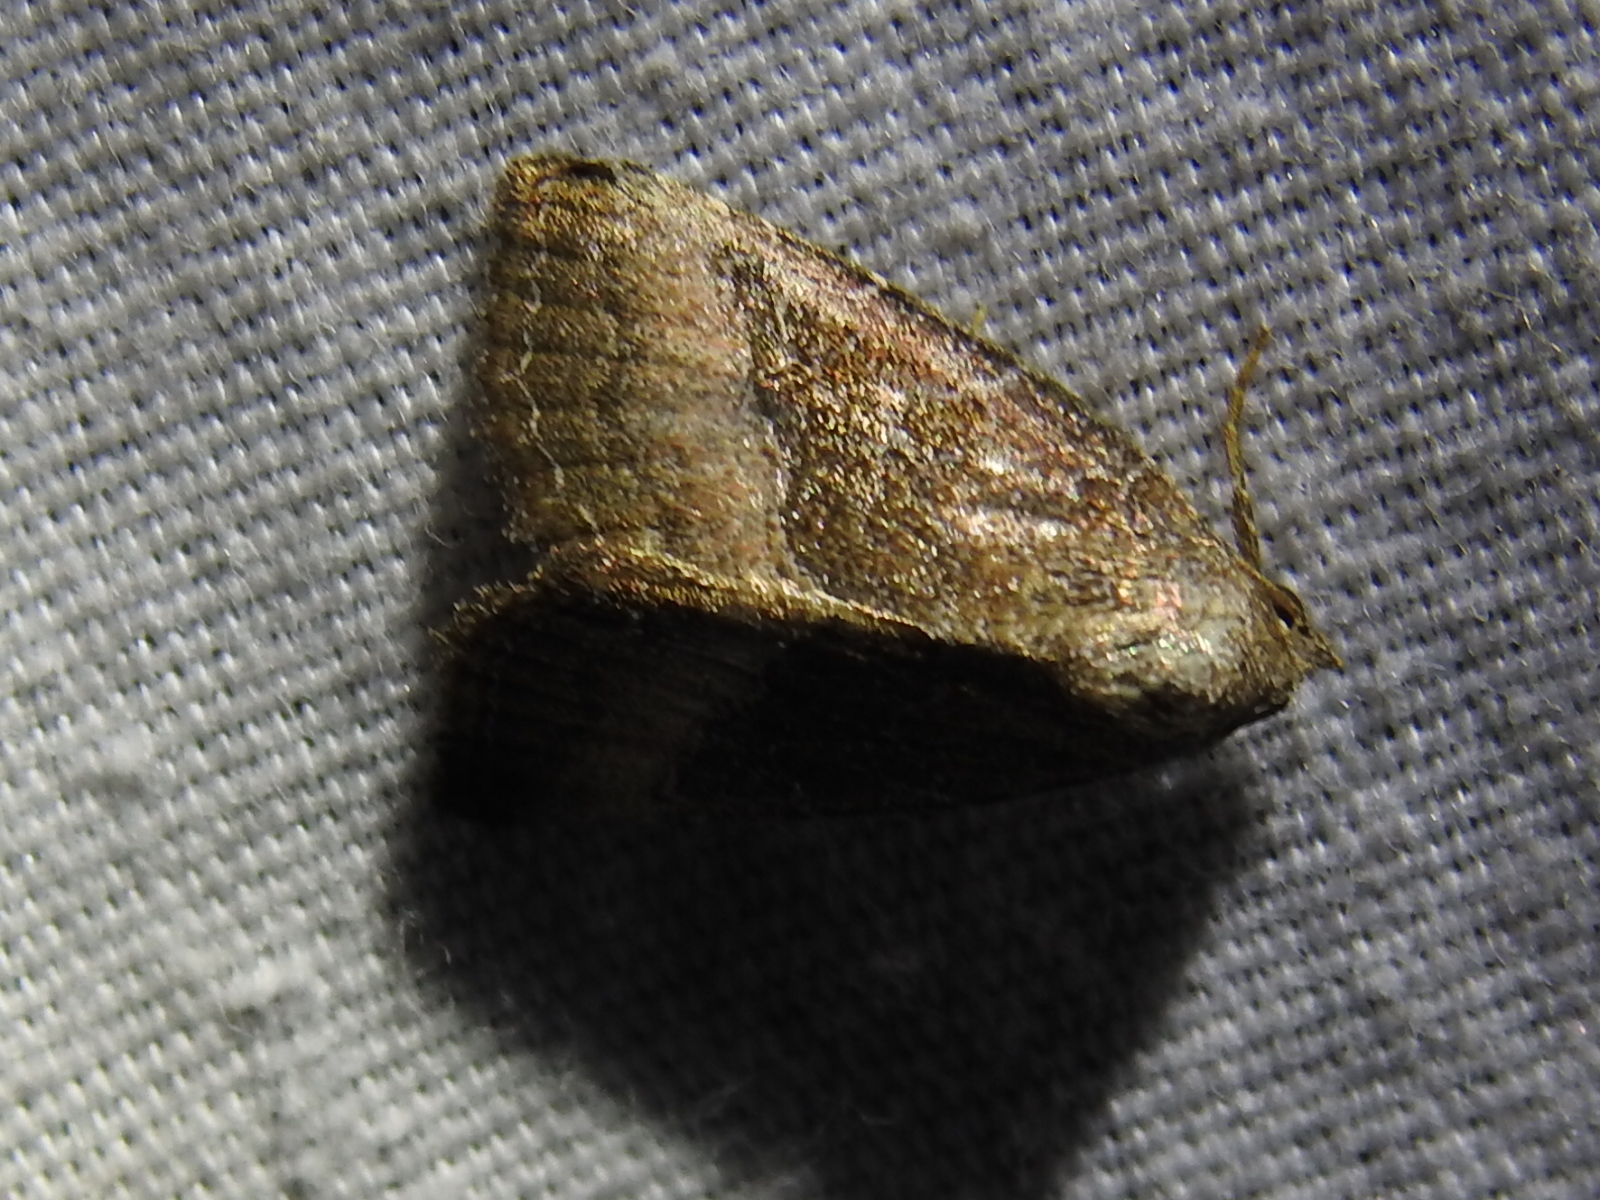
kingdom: Animalia
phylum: Arthropoda
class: Insecta
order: Lepidoptera
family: Noctuidae
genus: Ogdoconta
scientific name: Ogdoconta cinereola
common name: Common pinkband
